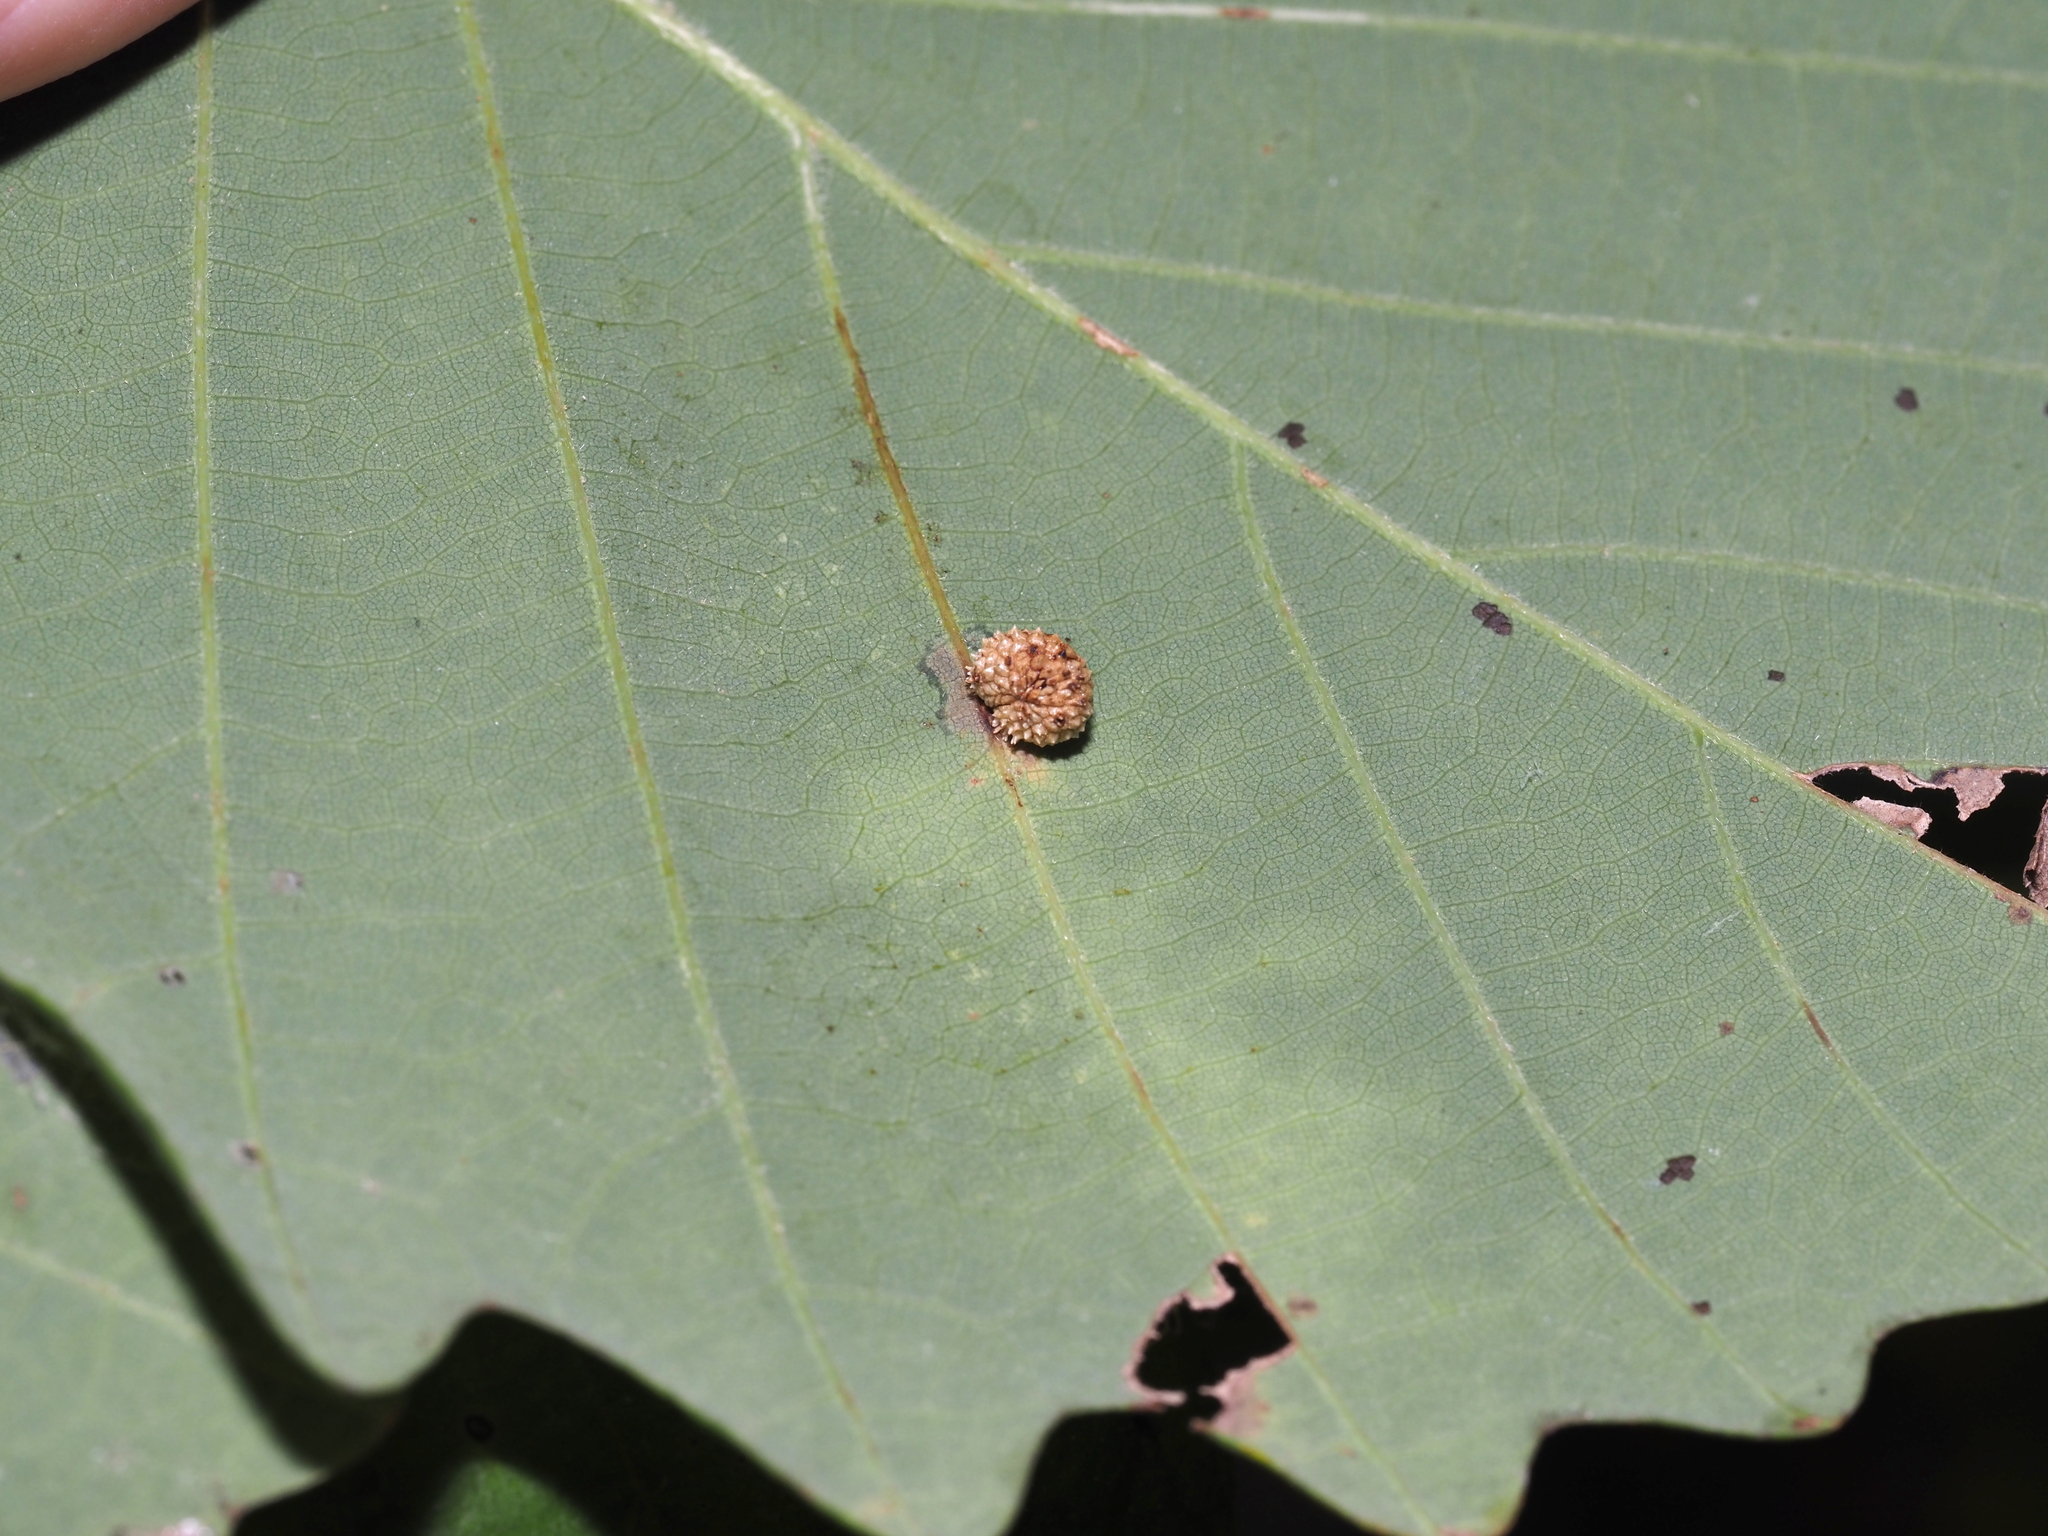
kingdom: Animalia
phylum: Arthropoda
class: Insecta
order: Hymenoptera
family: Cynipidae
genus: Acraspis
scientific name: Acraspis quercushirta
